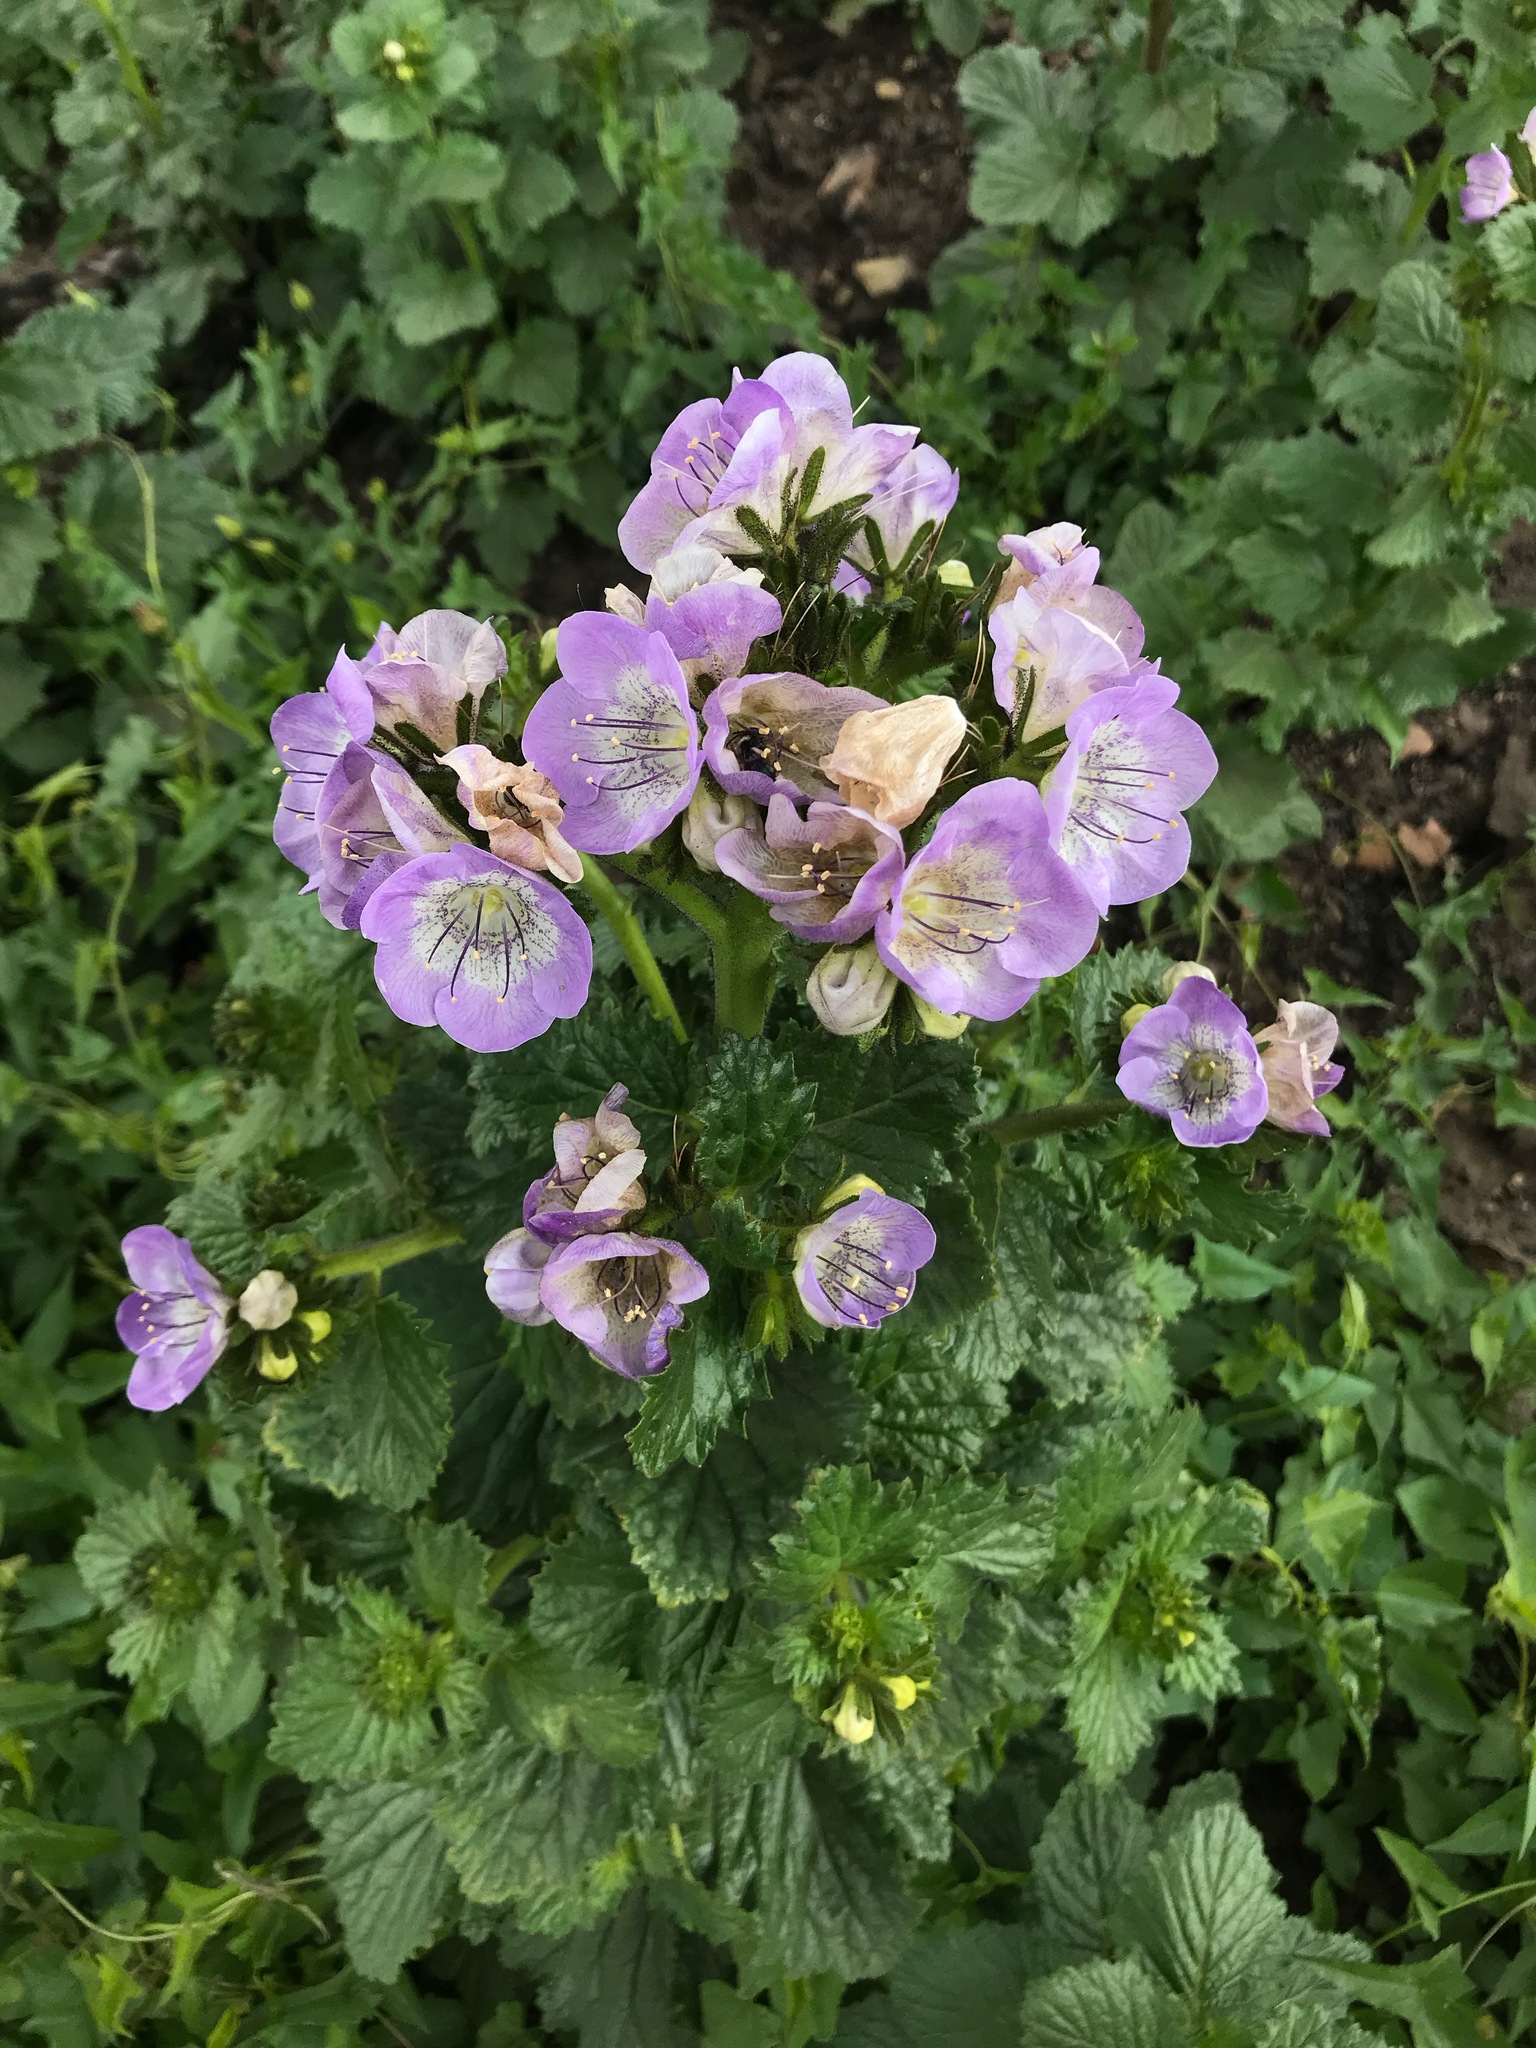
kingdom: Plantae
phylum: Tracheophyta
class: Magnoliopsida
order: Boraginales
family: Hydrophyllaceae
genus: Phacelia
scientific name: Phacelia grandiflora
